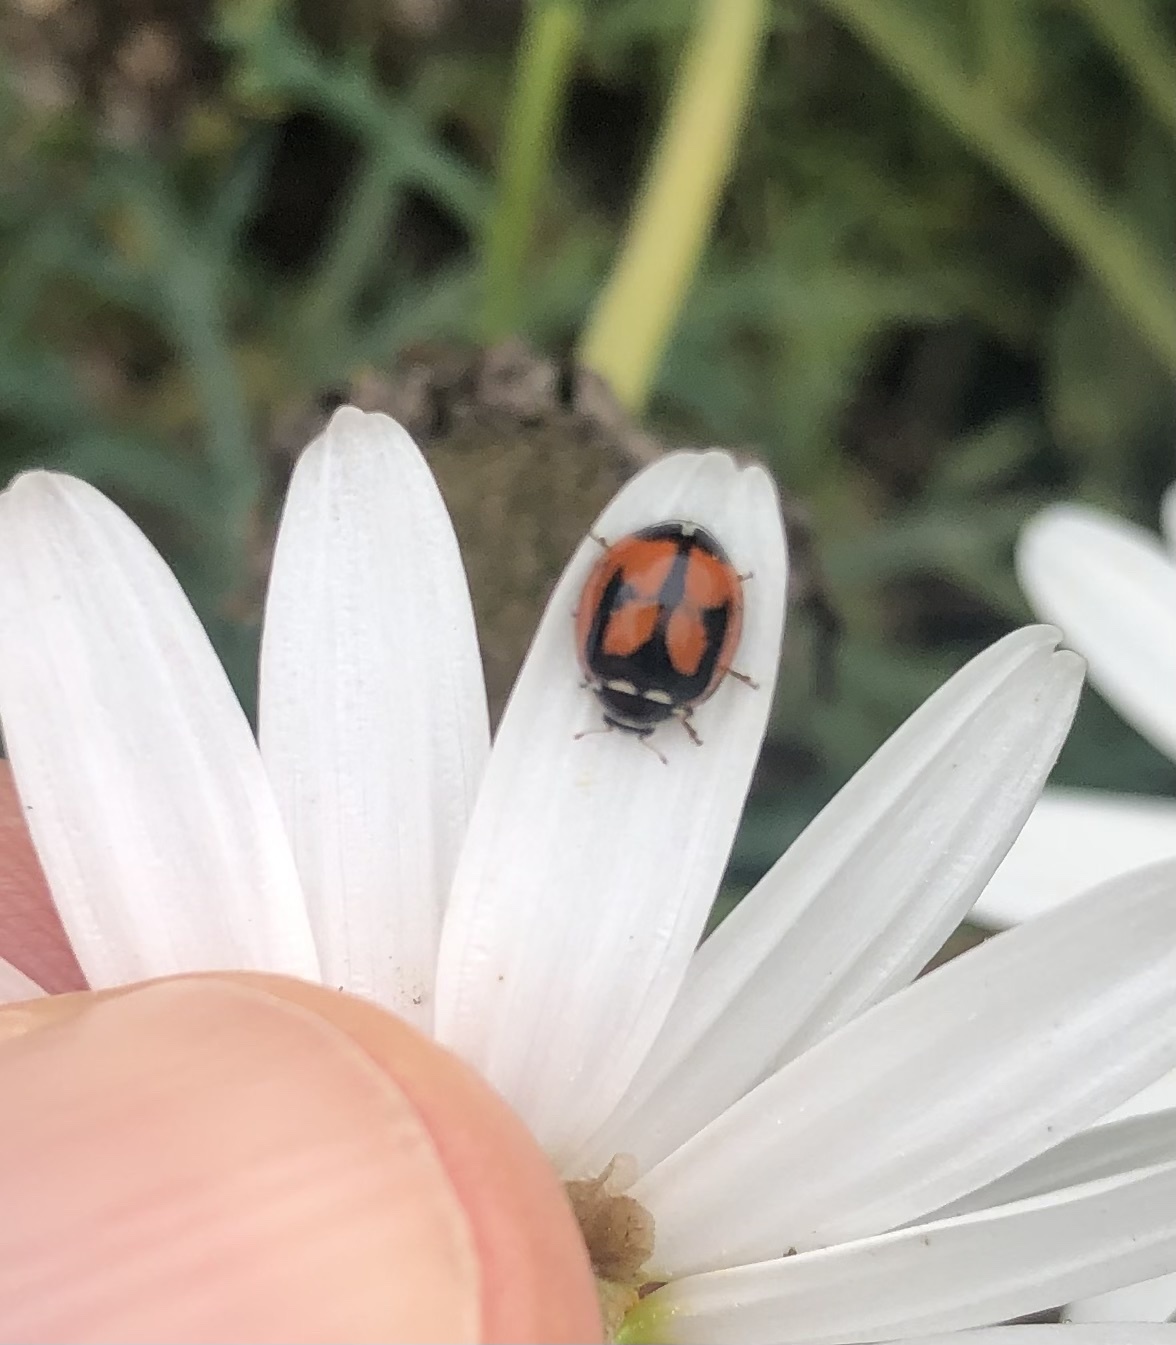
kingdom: Animalia
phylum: Arthropoda
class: Insecta
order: Coleoptera
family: Coccinellidae
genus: Adalia
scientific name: Adalia deficiens
